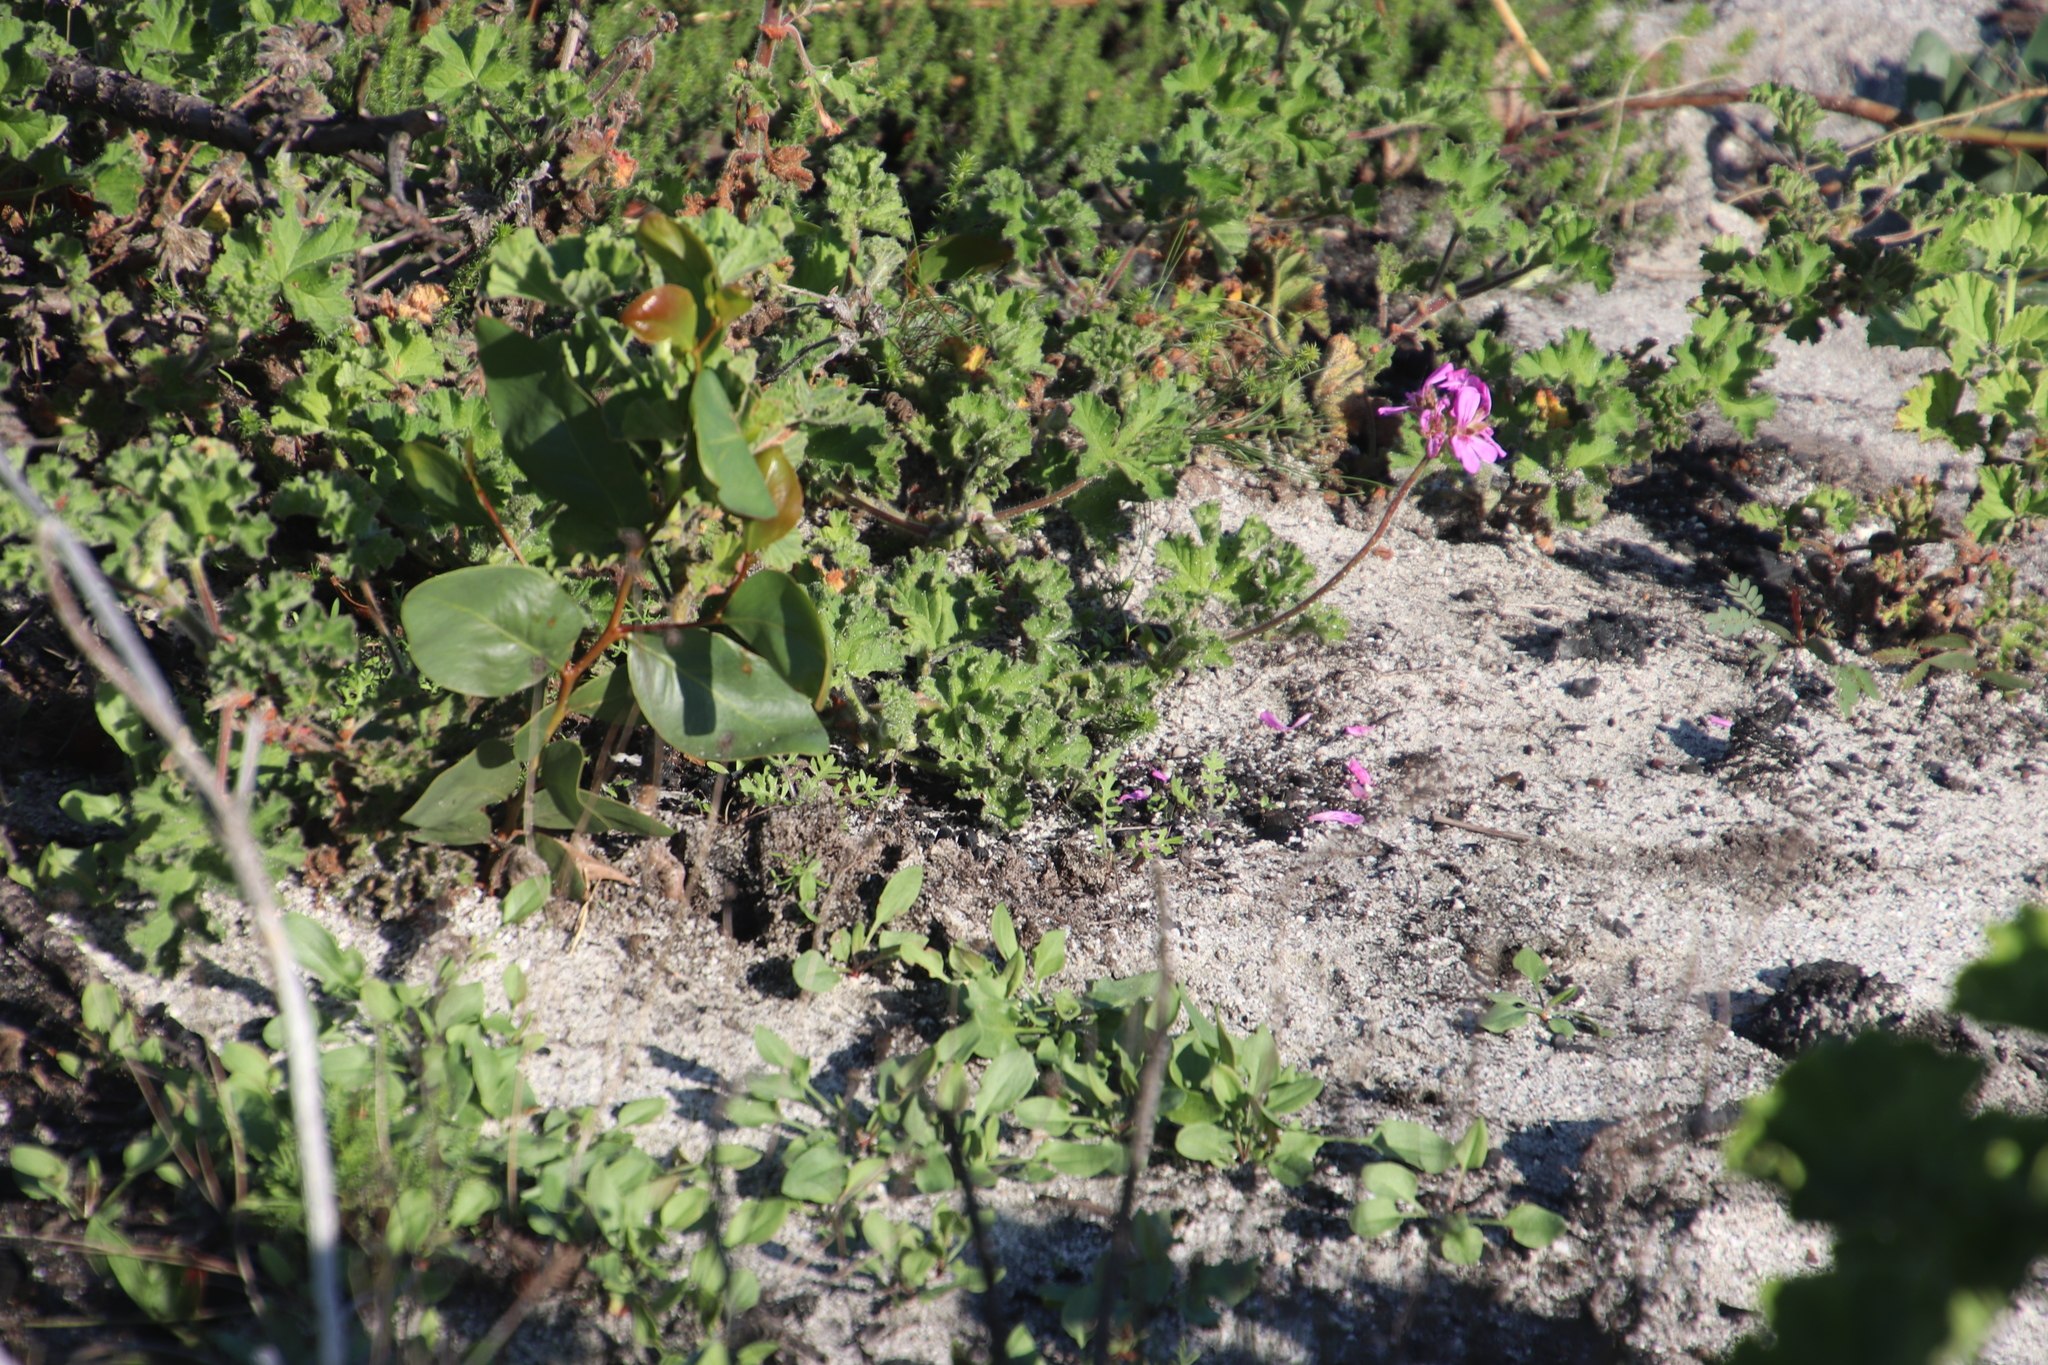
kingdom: Plantae
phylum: Tracheophyta
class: Magnoliopsida
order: Geraniales
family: Geraniaceae
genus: Pelargonium
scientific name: Pelargonium capitatum
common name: Rose scented geranium
